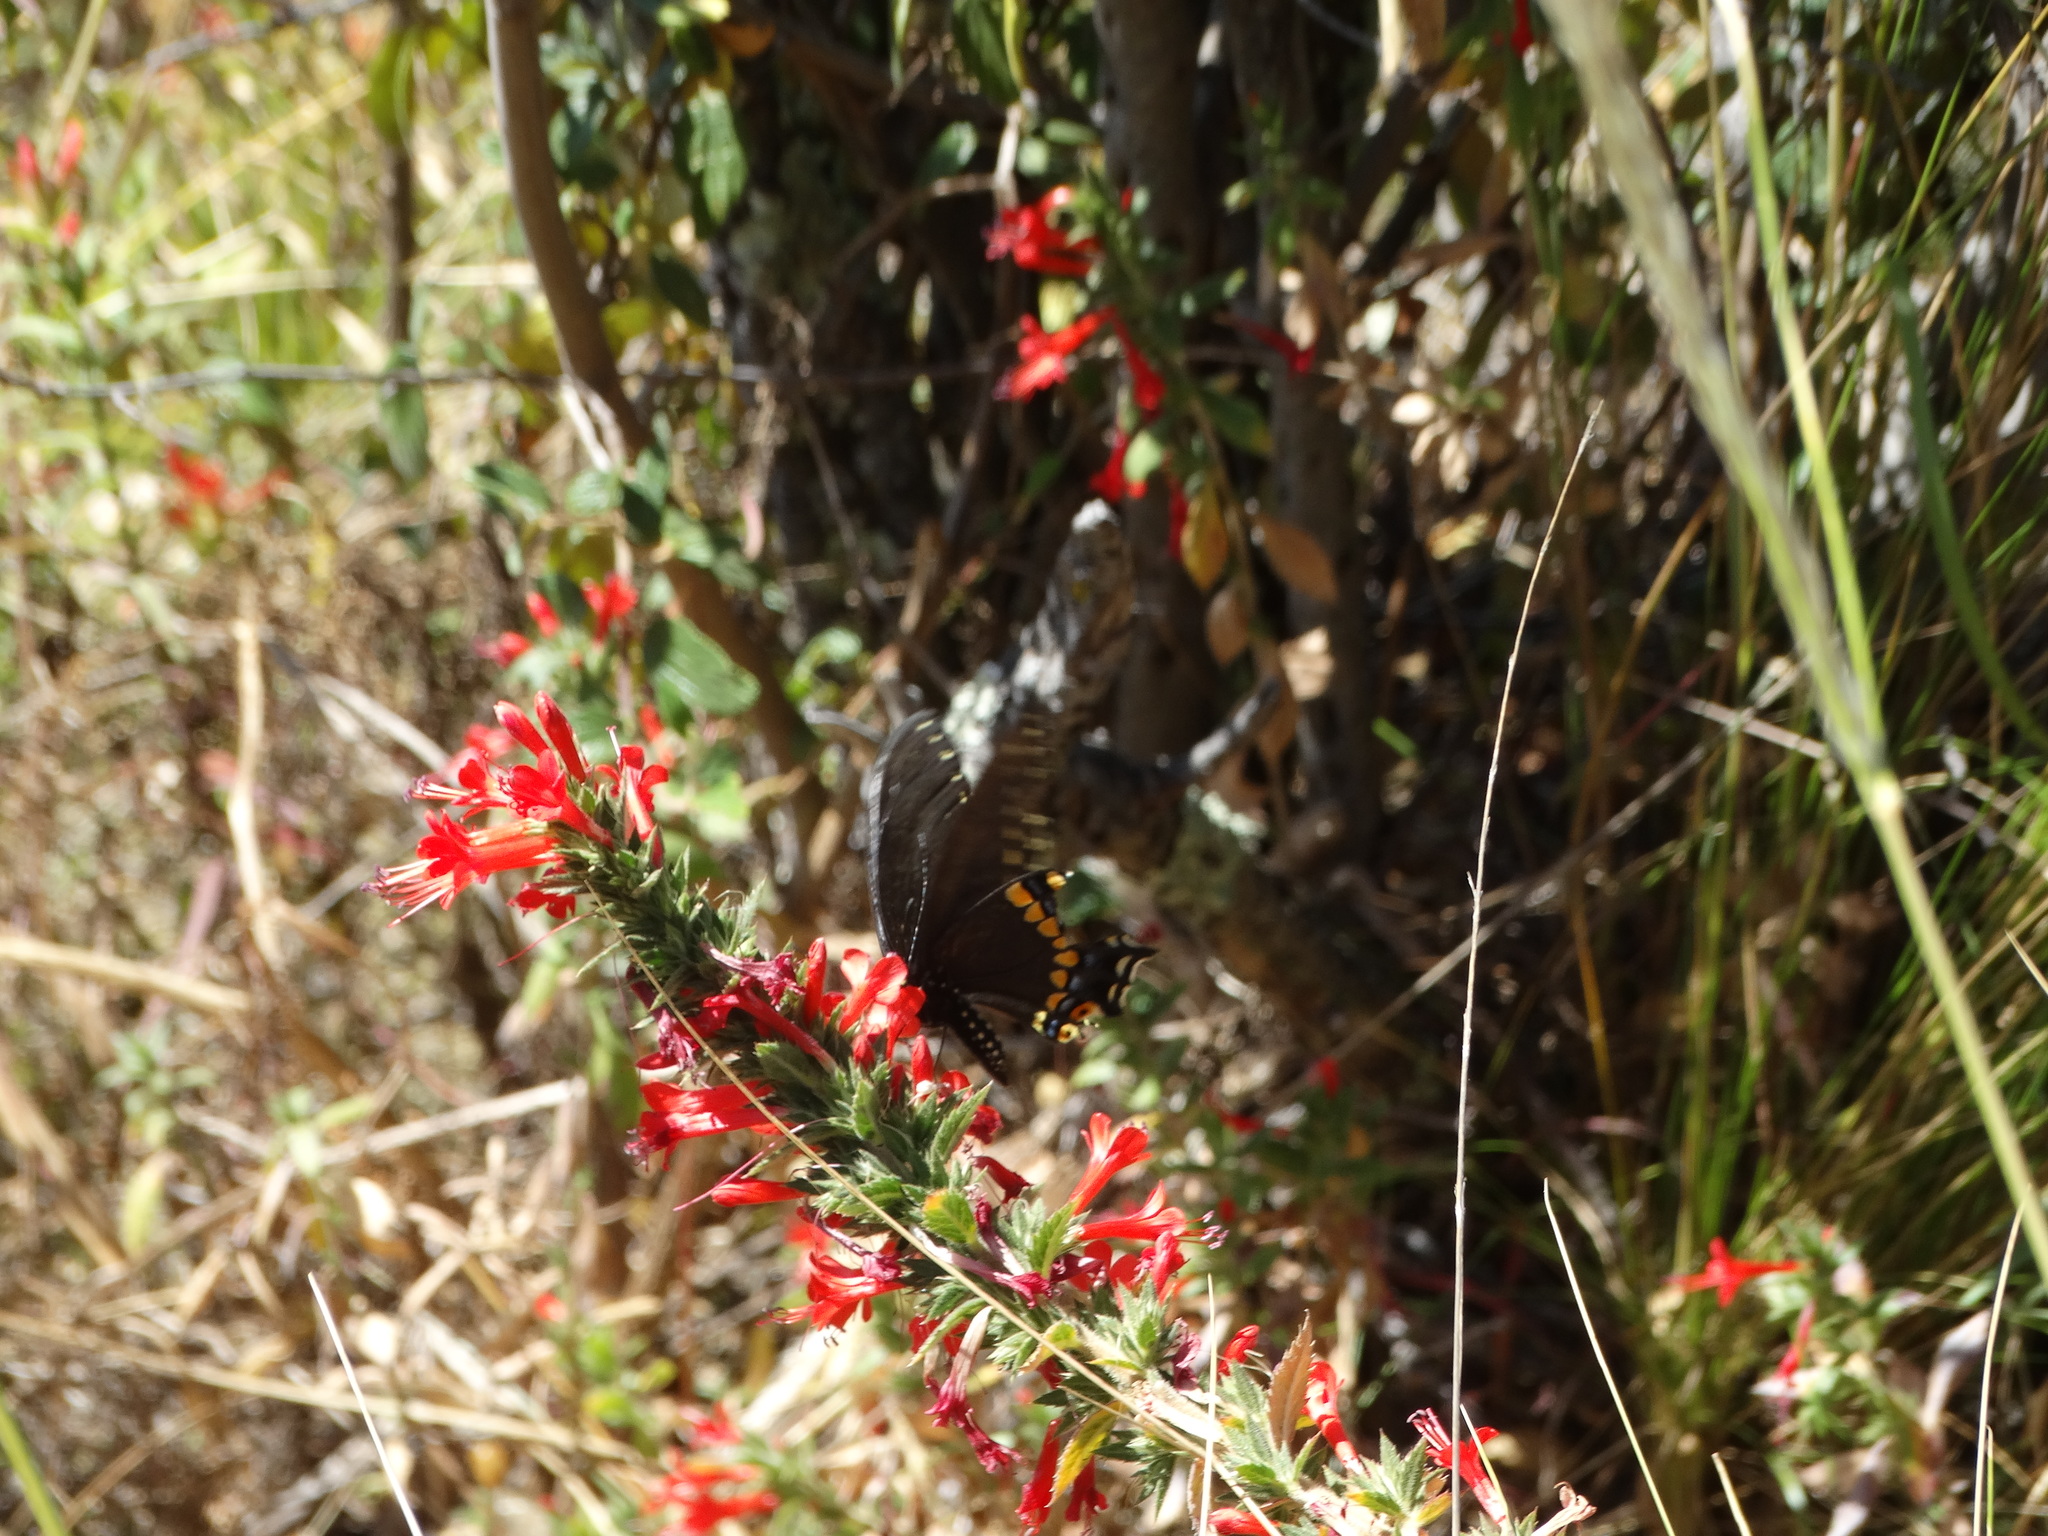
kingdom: Animalia
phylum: Arthropoda
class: Insecta
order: Lepidoptera
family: Papilionidae
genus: Papilio
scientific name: Papilio polyxenes
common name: Black swallowtail
